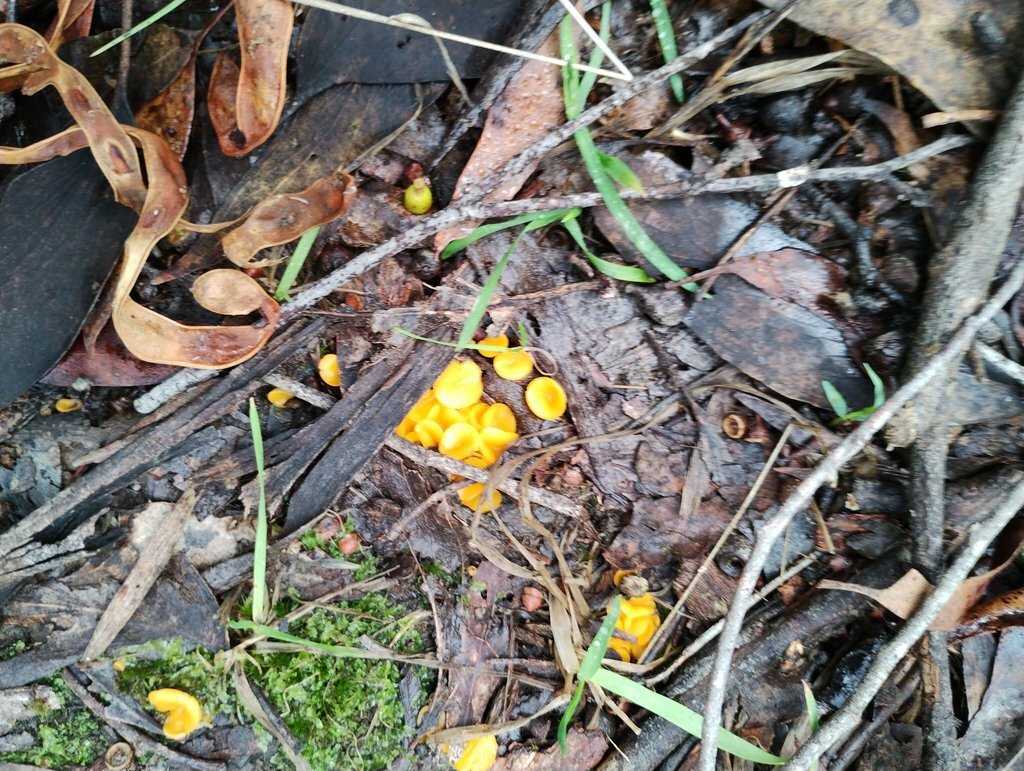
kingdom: Fungi
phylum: Ascomycota
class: Leotiomycetes
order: Helotiales
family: Helotiaceae
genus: Phaeohelotium
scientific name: Phaeohelotium baileyanum
